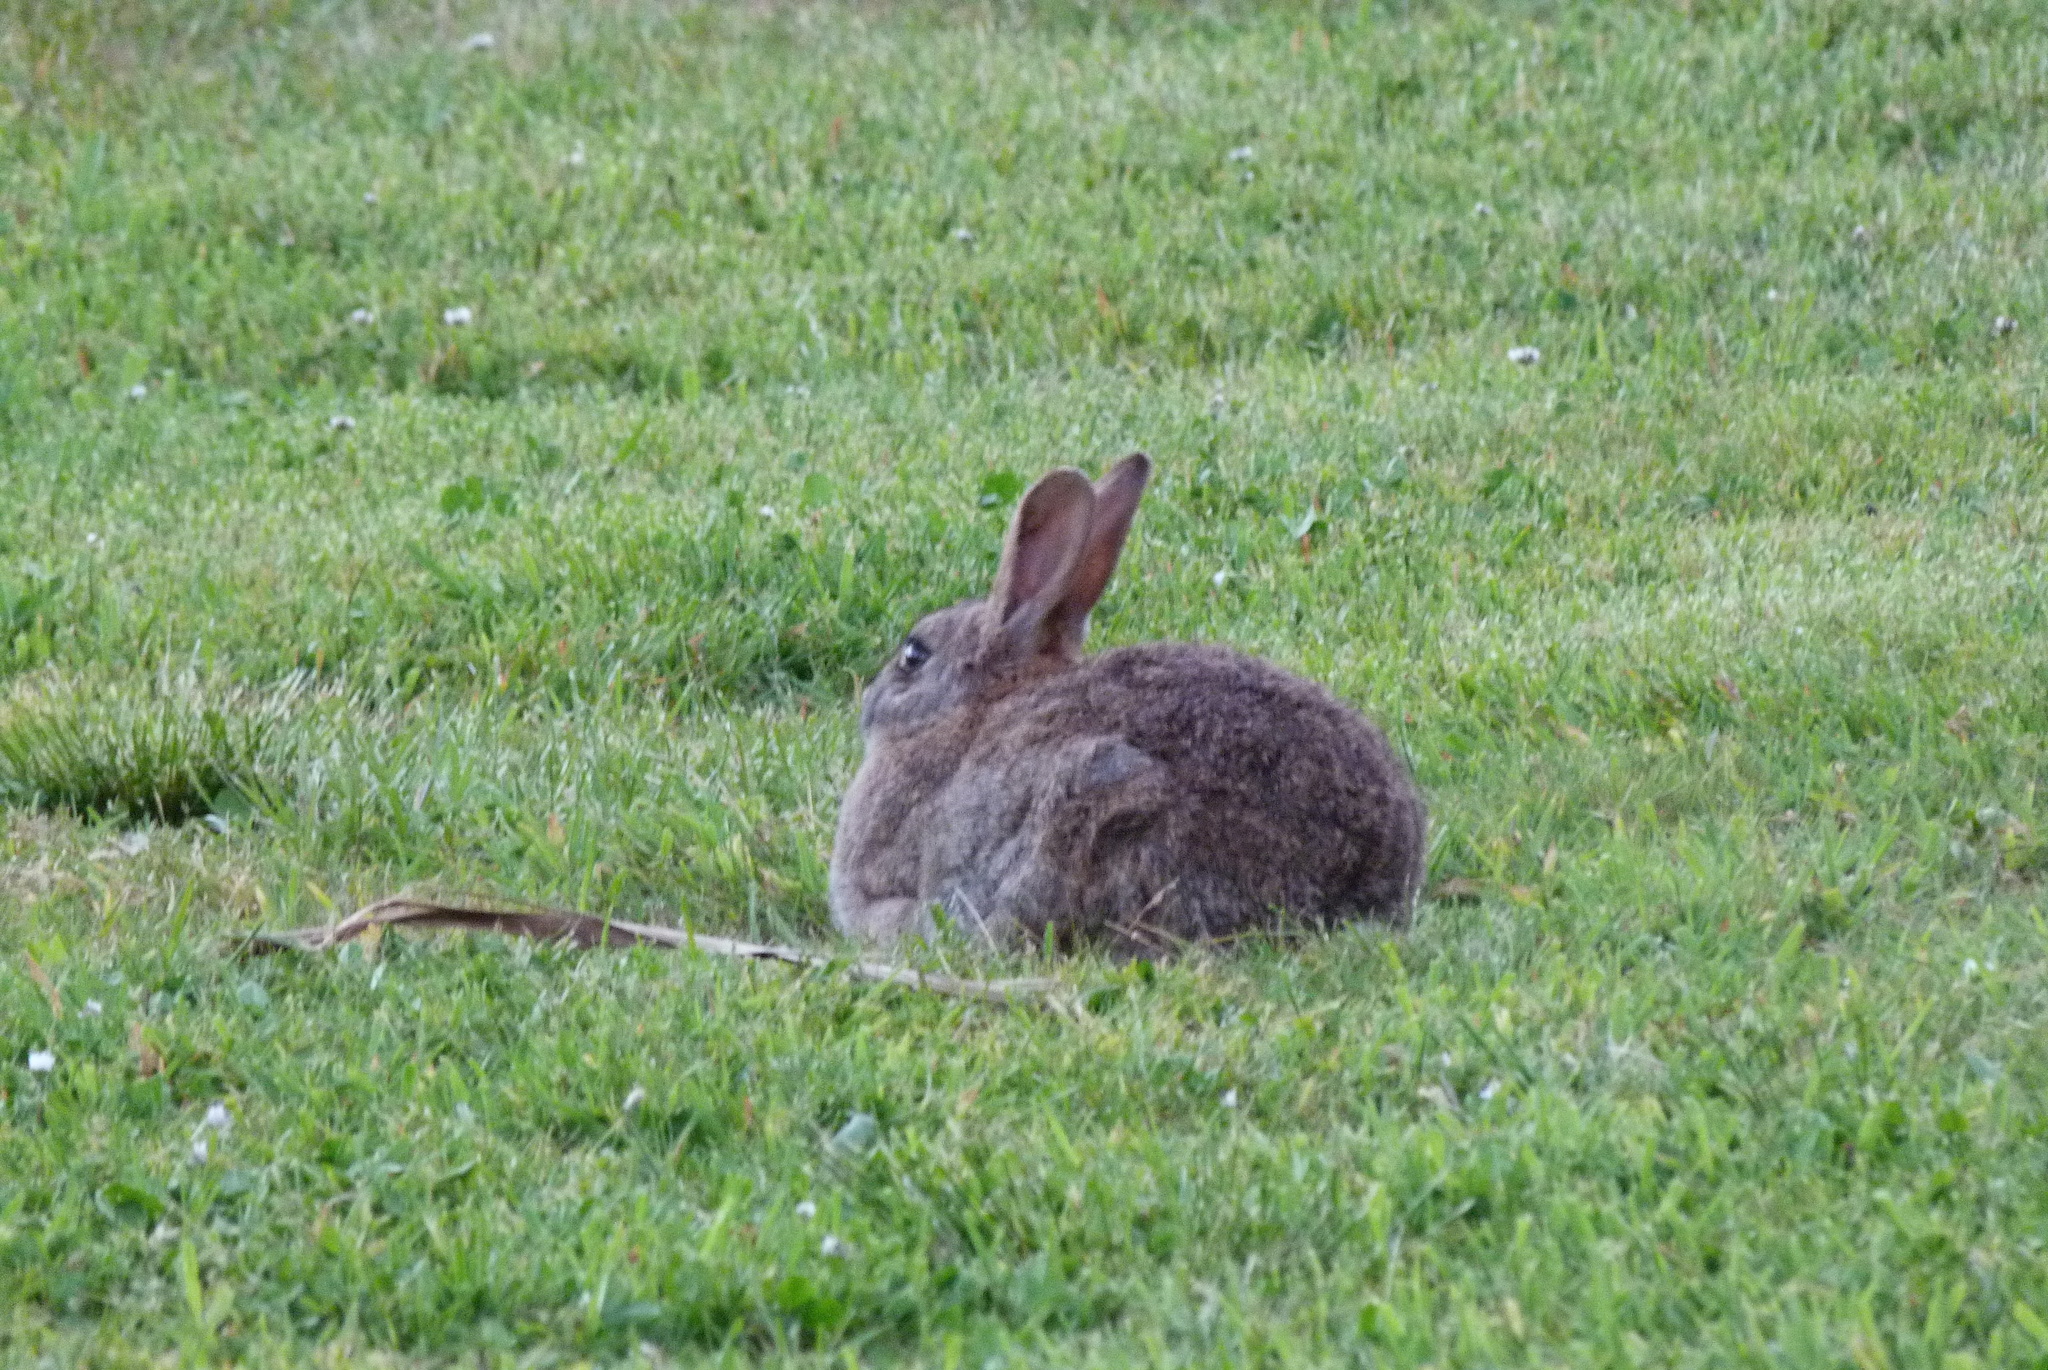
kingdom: Animalia
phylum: Chordata
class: Mammalia
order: Lagomorpha
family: Leporidae
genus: Oryctolagus
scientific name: Oryctolagus cuniculus
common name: European rabbit
